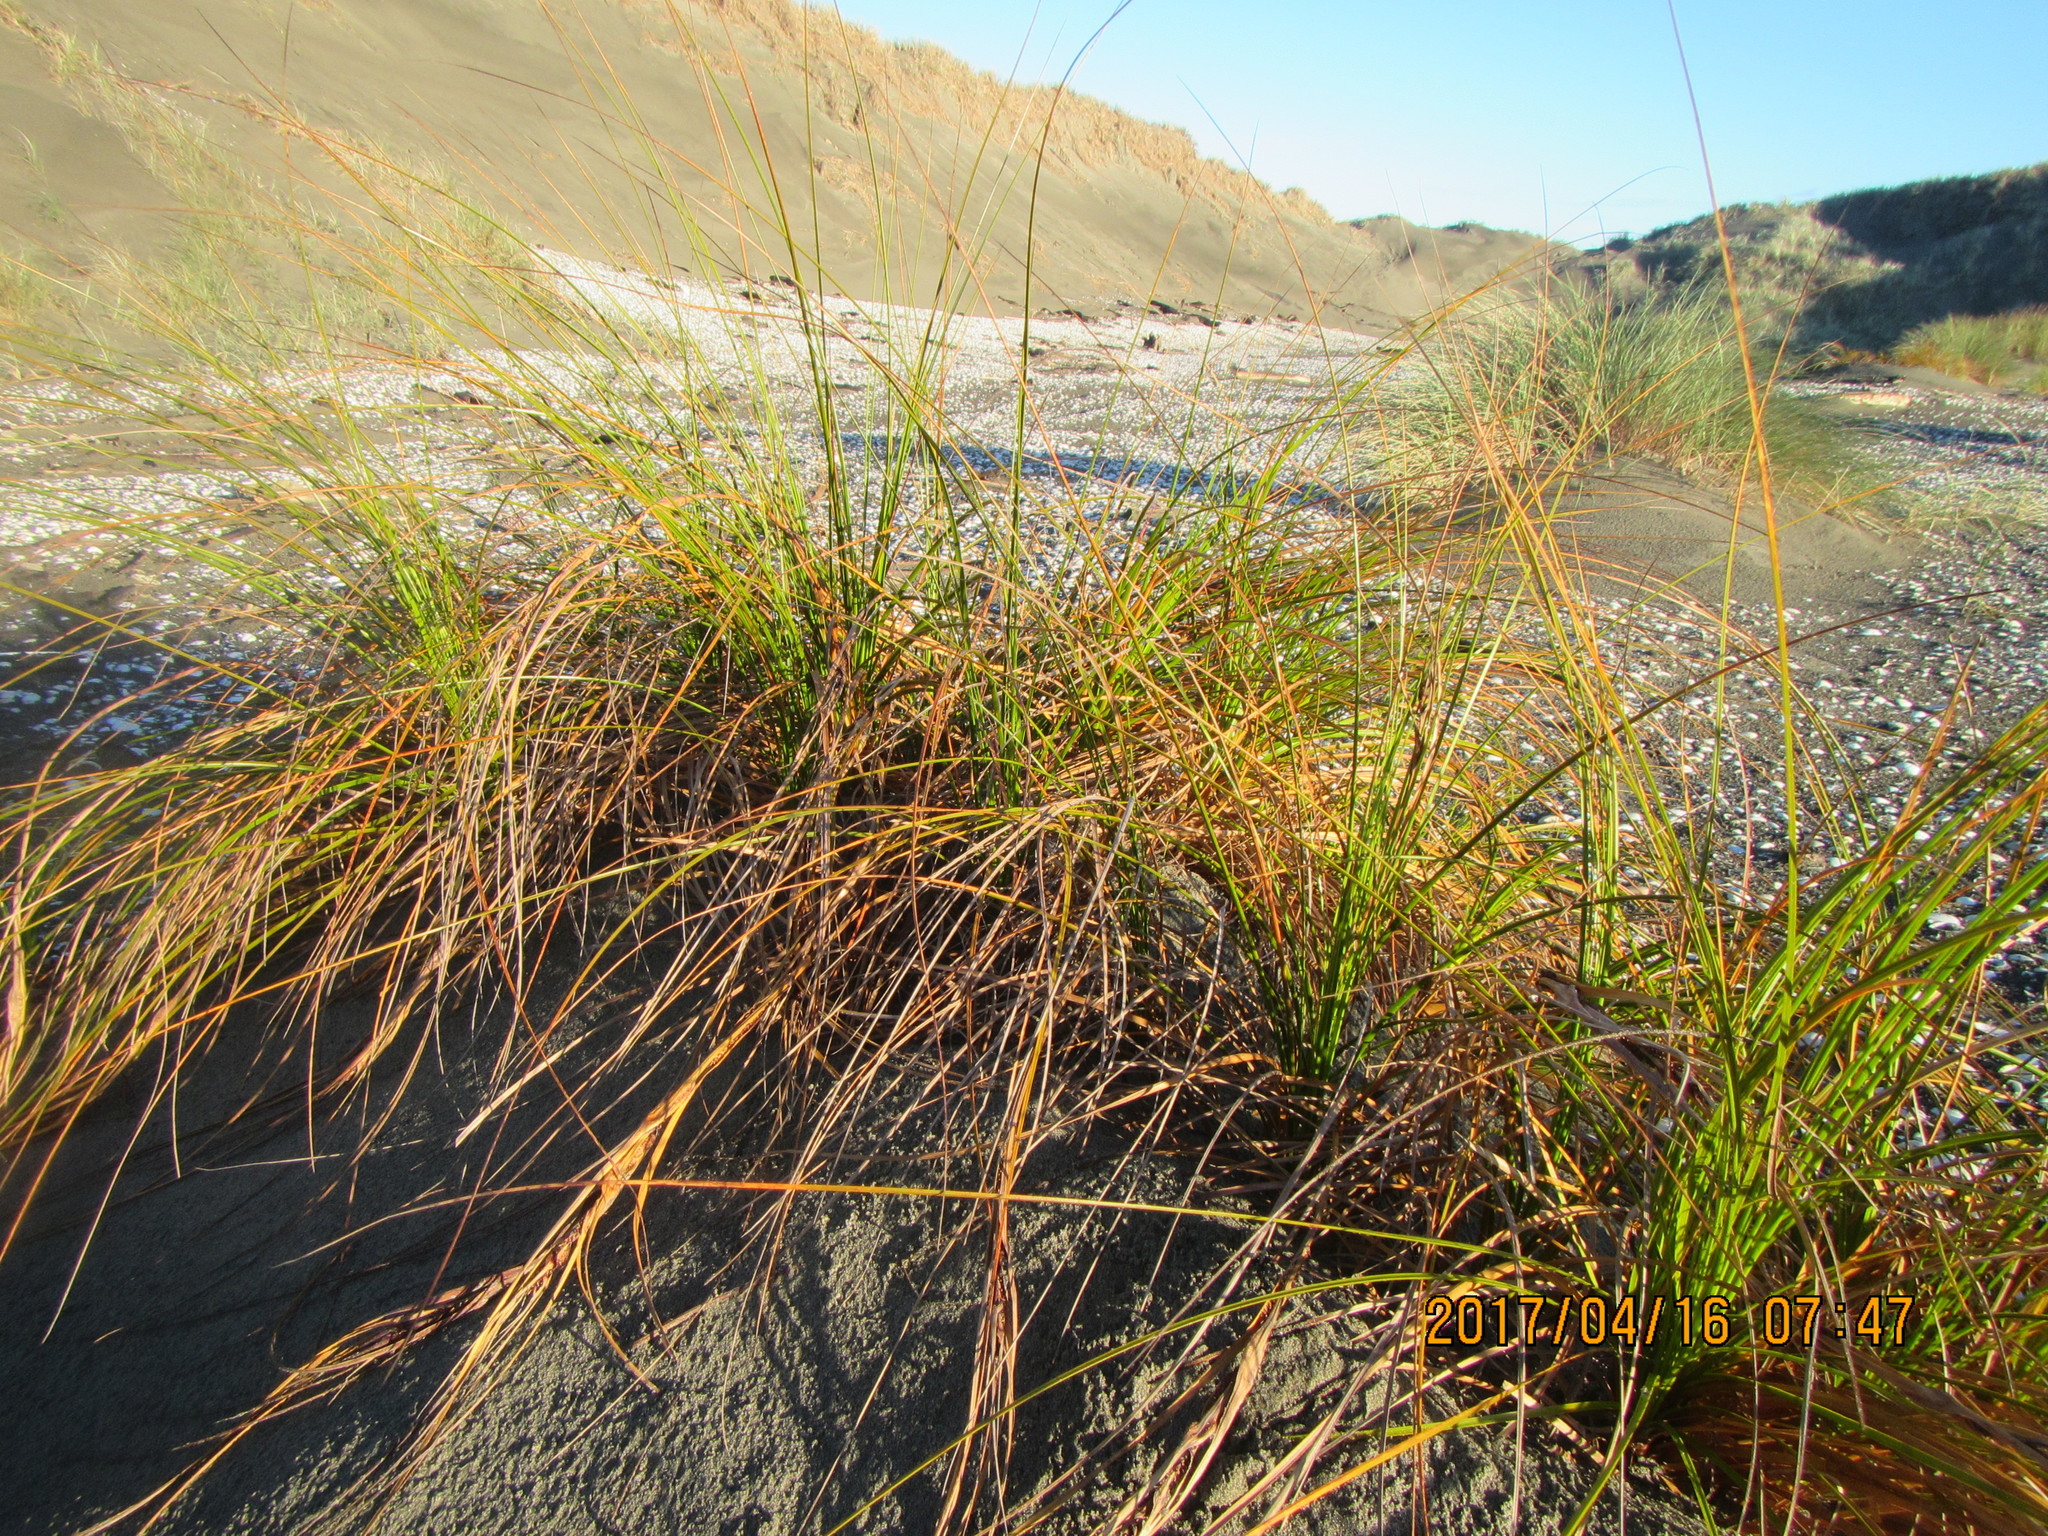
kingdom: Plantae
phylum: Tracheophyta
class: Liliopsida
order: Poales
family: Cyperaceae
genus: Ficinia
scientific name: Ficinia spiralis
